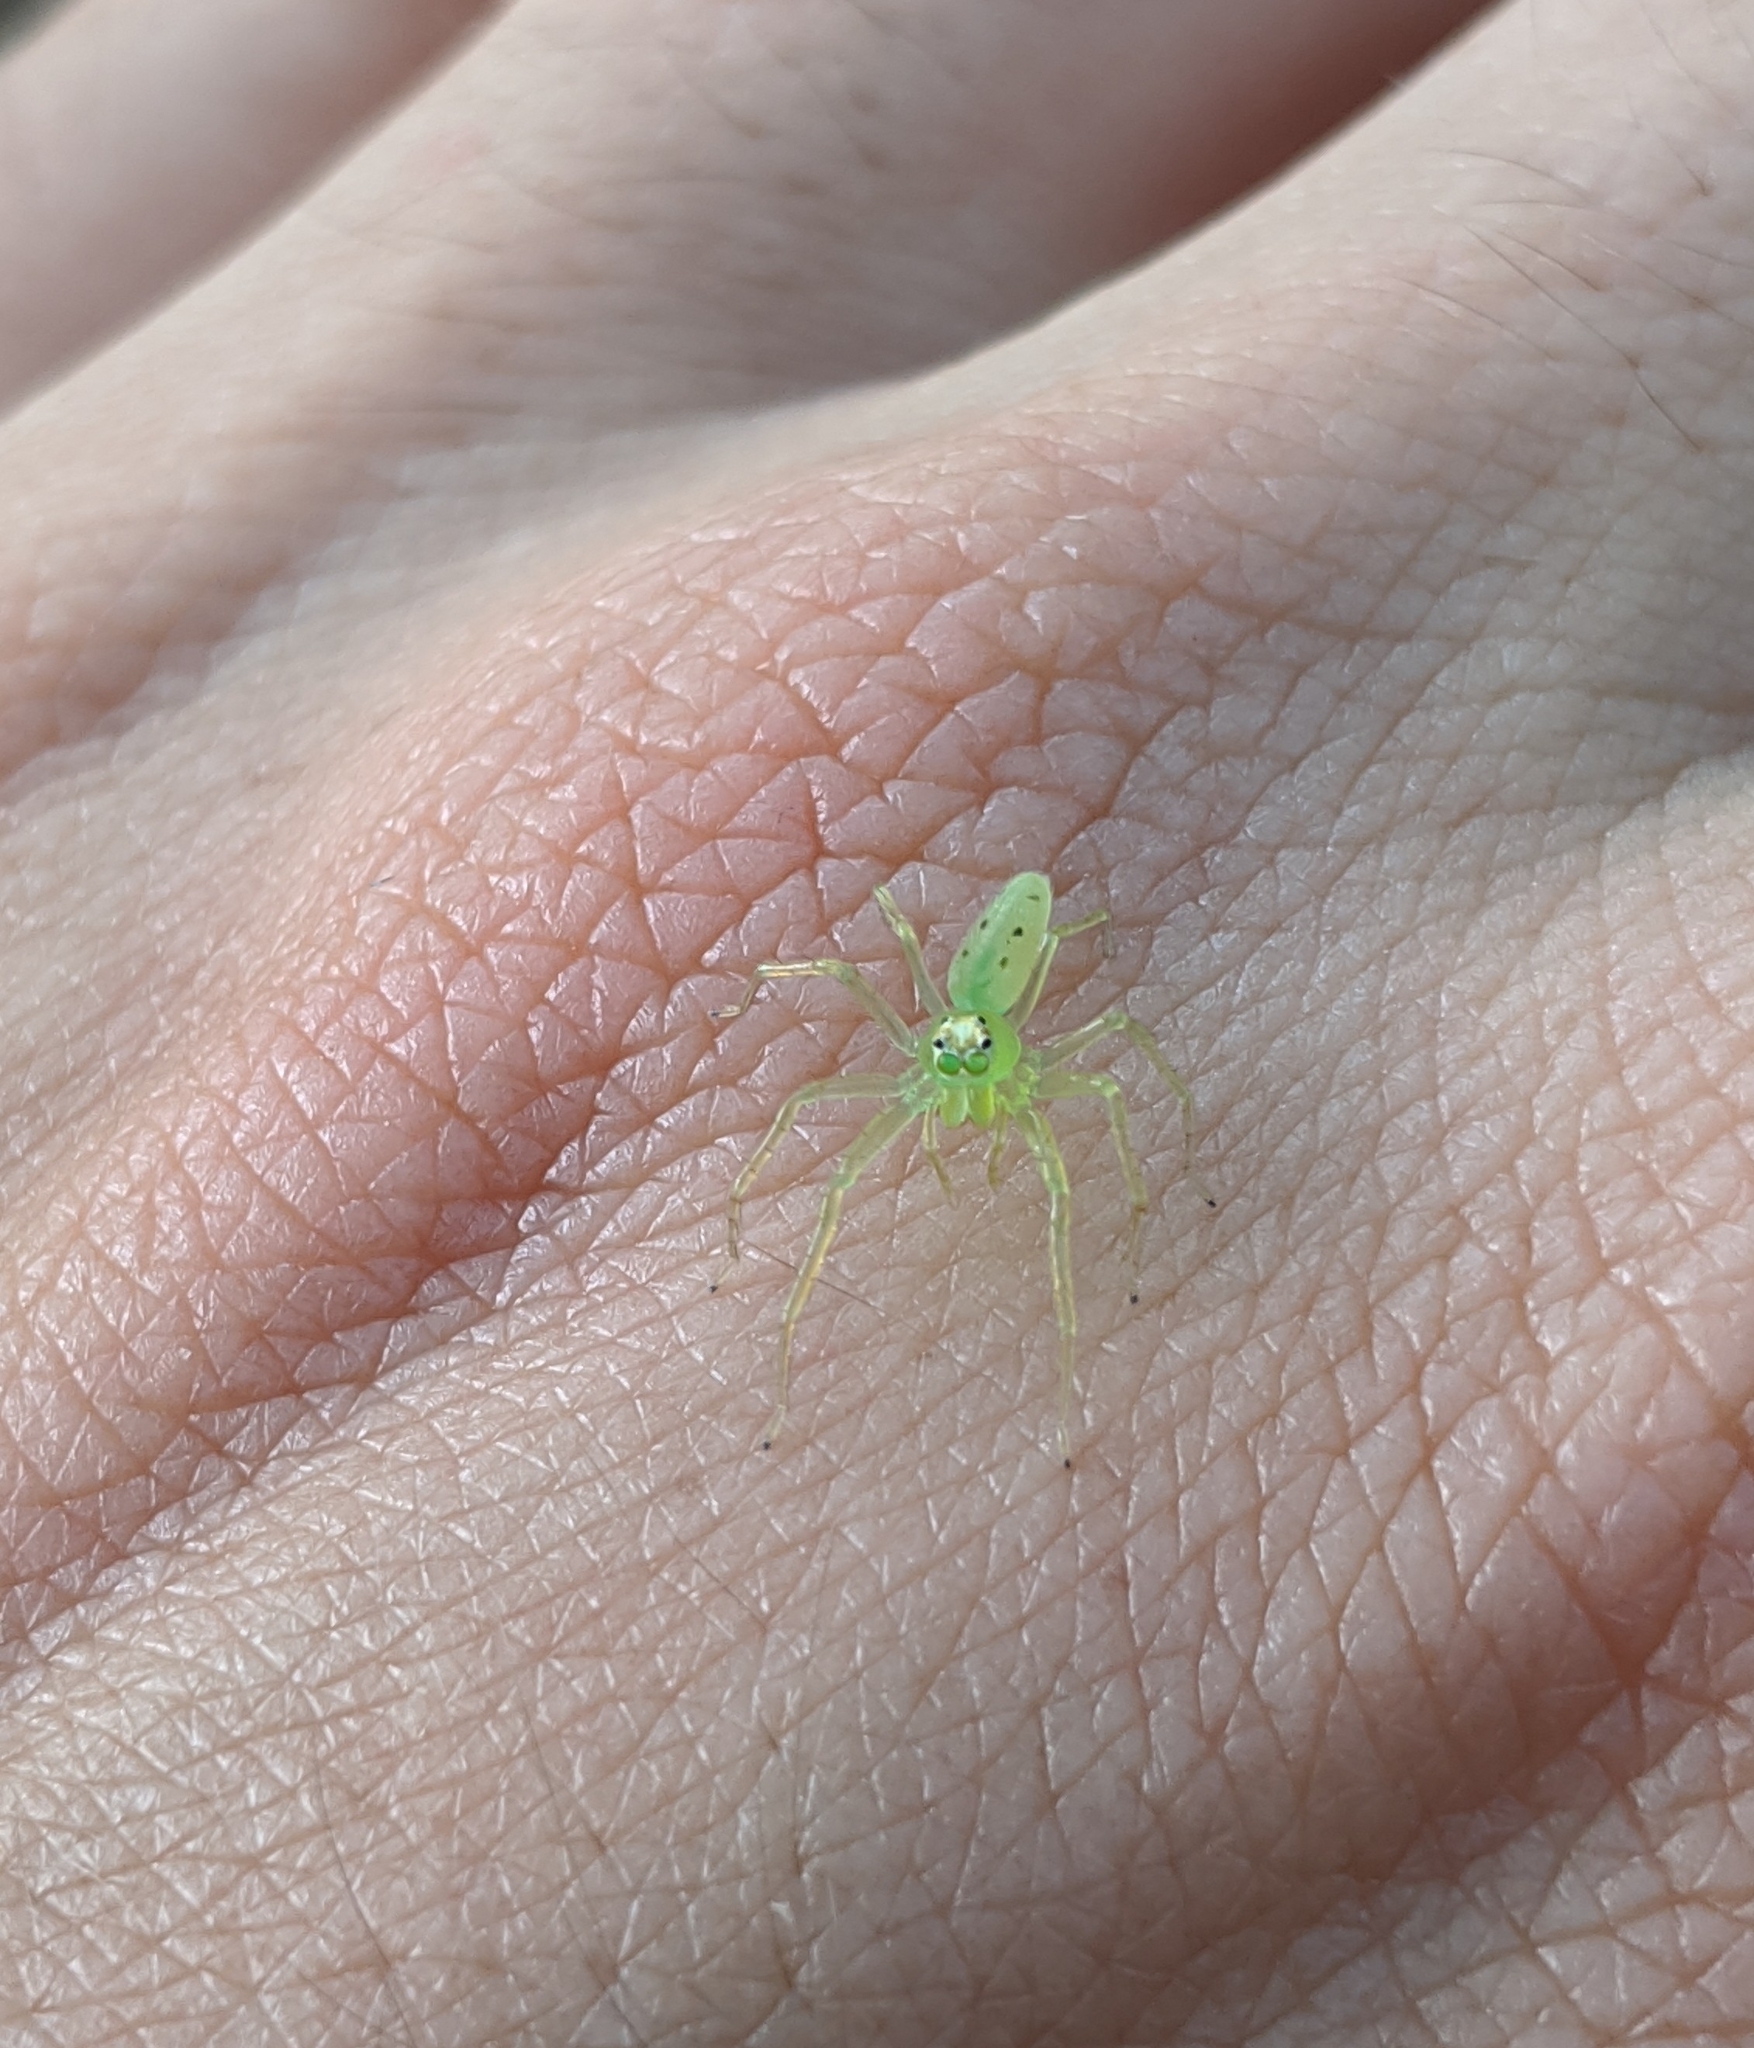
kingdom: Animalia
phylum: Arthropoda
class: Arachnida
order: Araneae
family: Salticidae
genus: Lyssomanes
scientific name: Lyssomanes viridis
